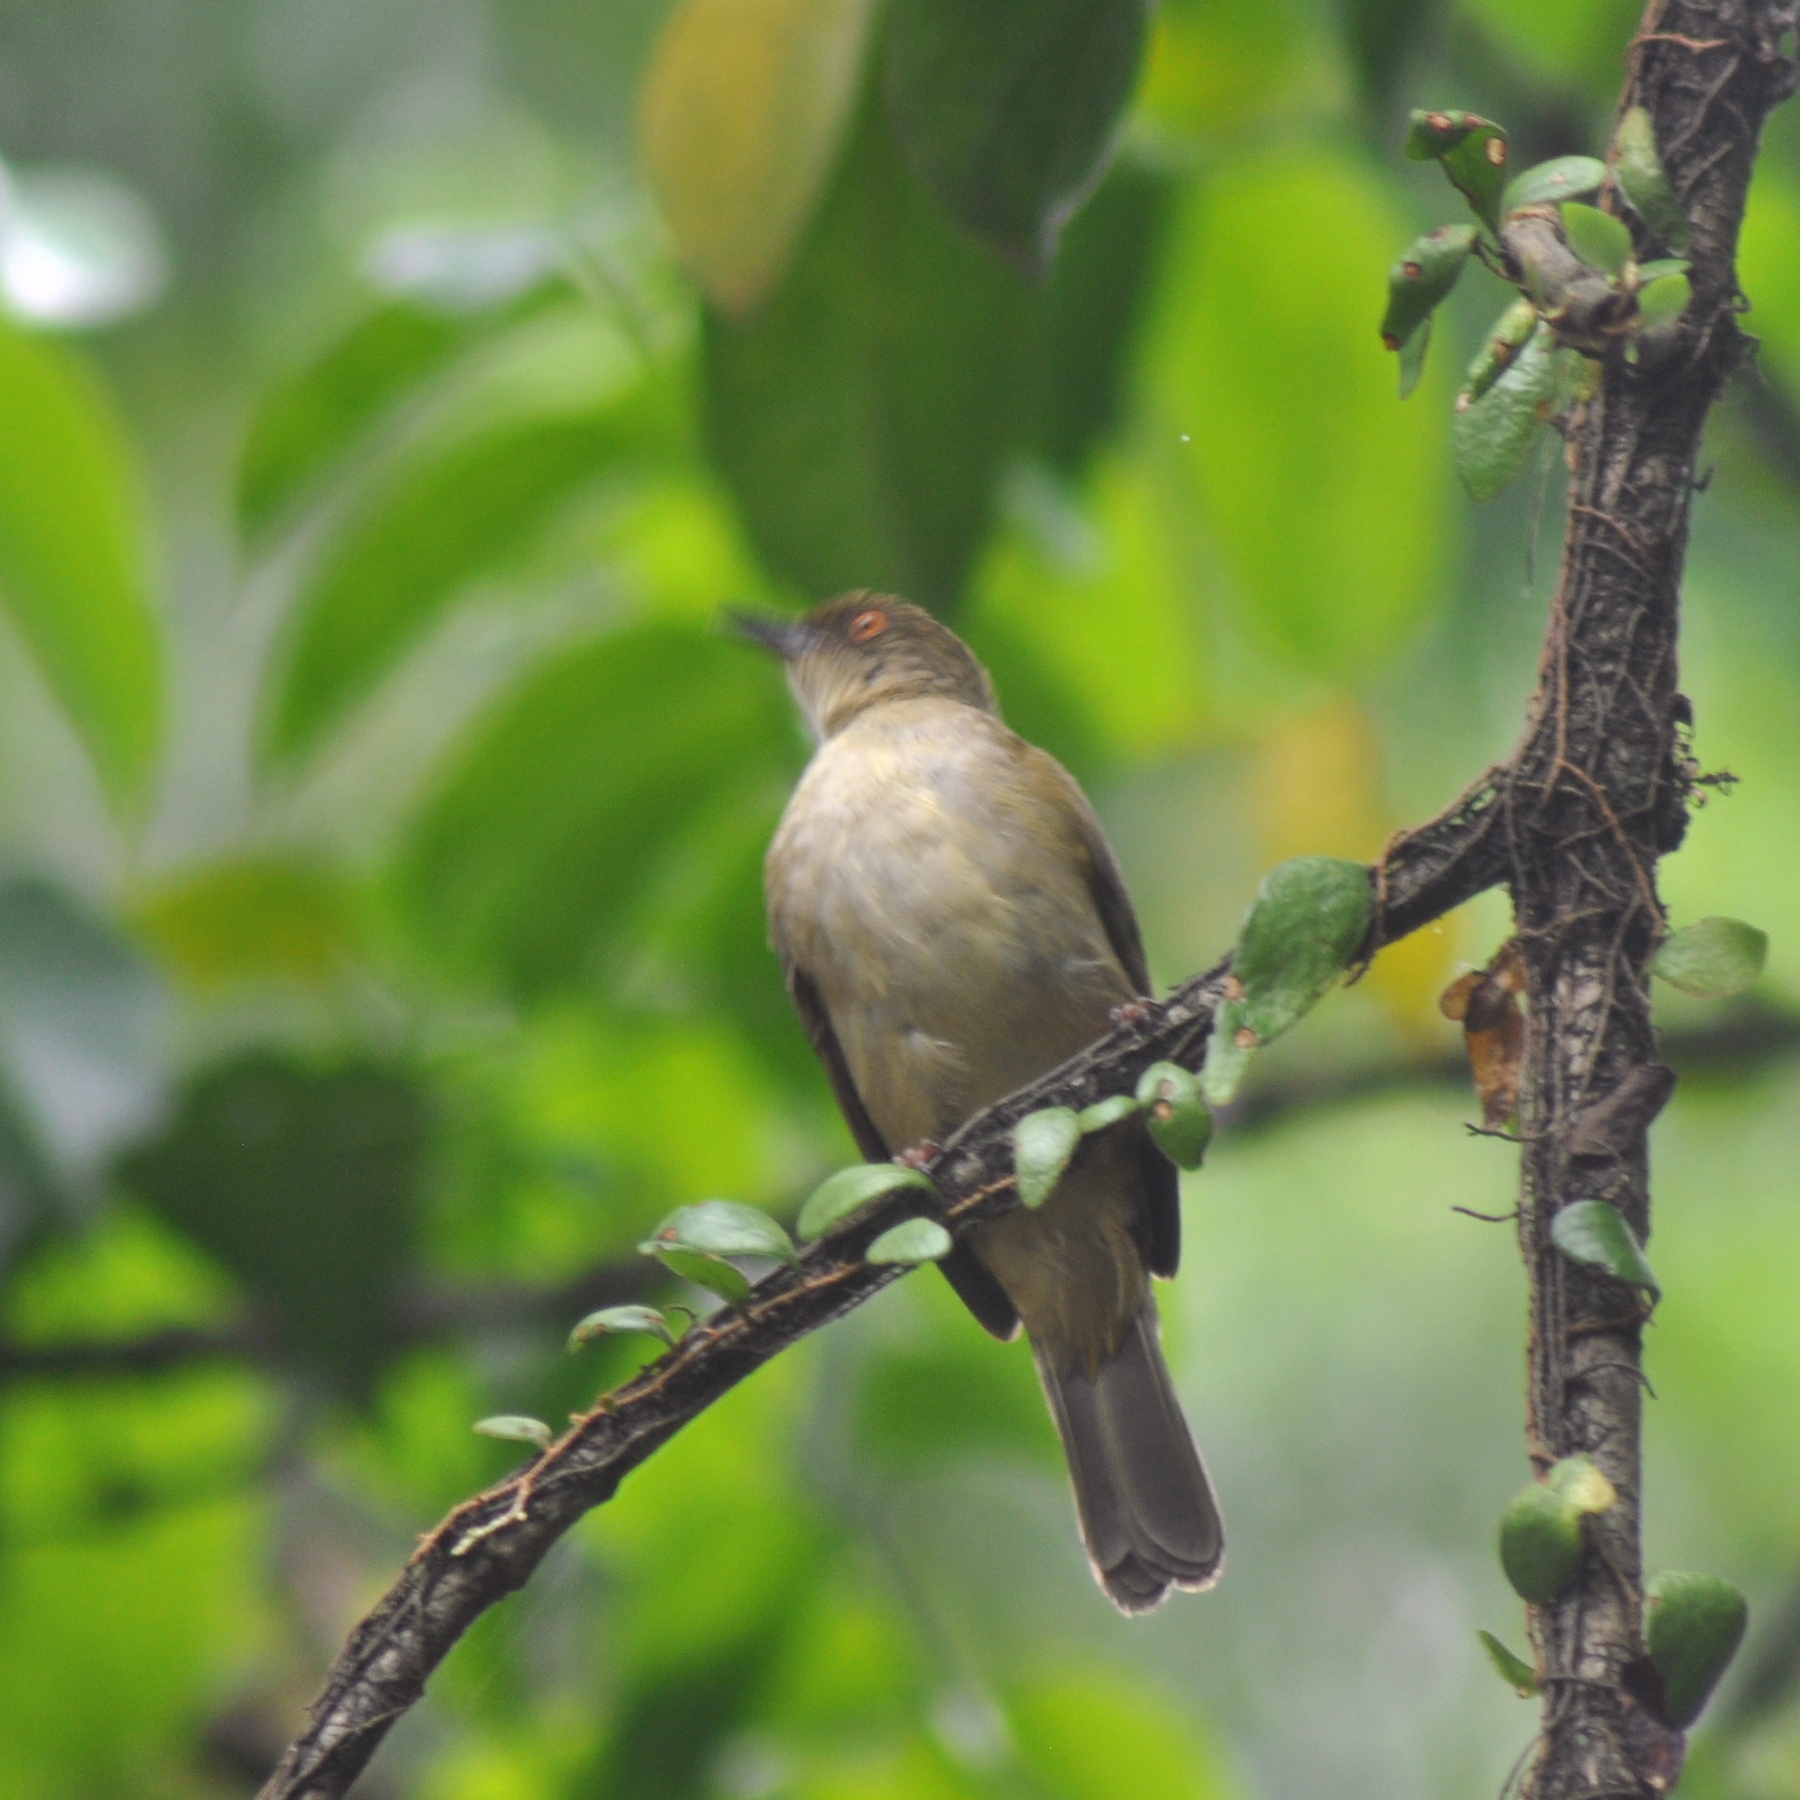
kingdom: Animalia
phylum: Chordata
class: Aves
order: Passeriformes
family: Pycnonotidae
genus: Pycnonotus
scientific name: Pycnonotus simplex
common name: Cream-vented bulbul
